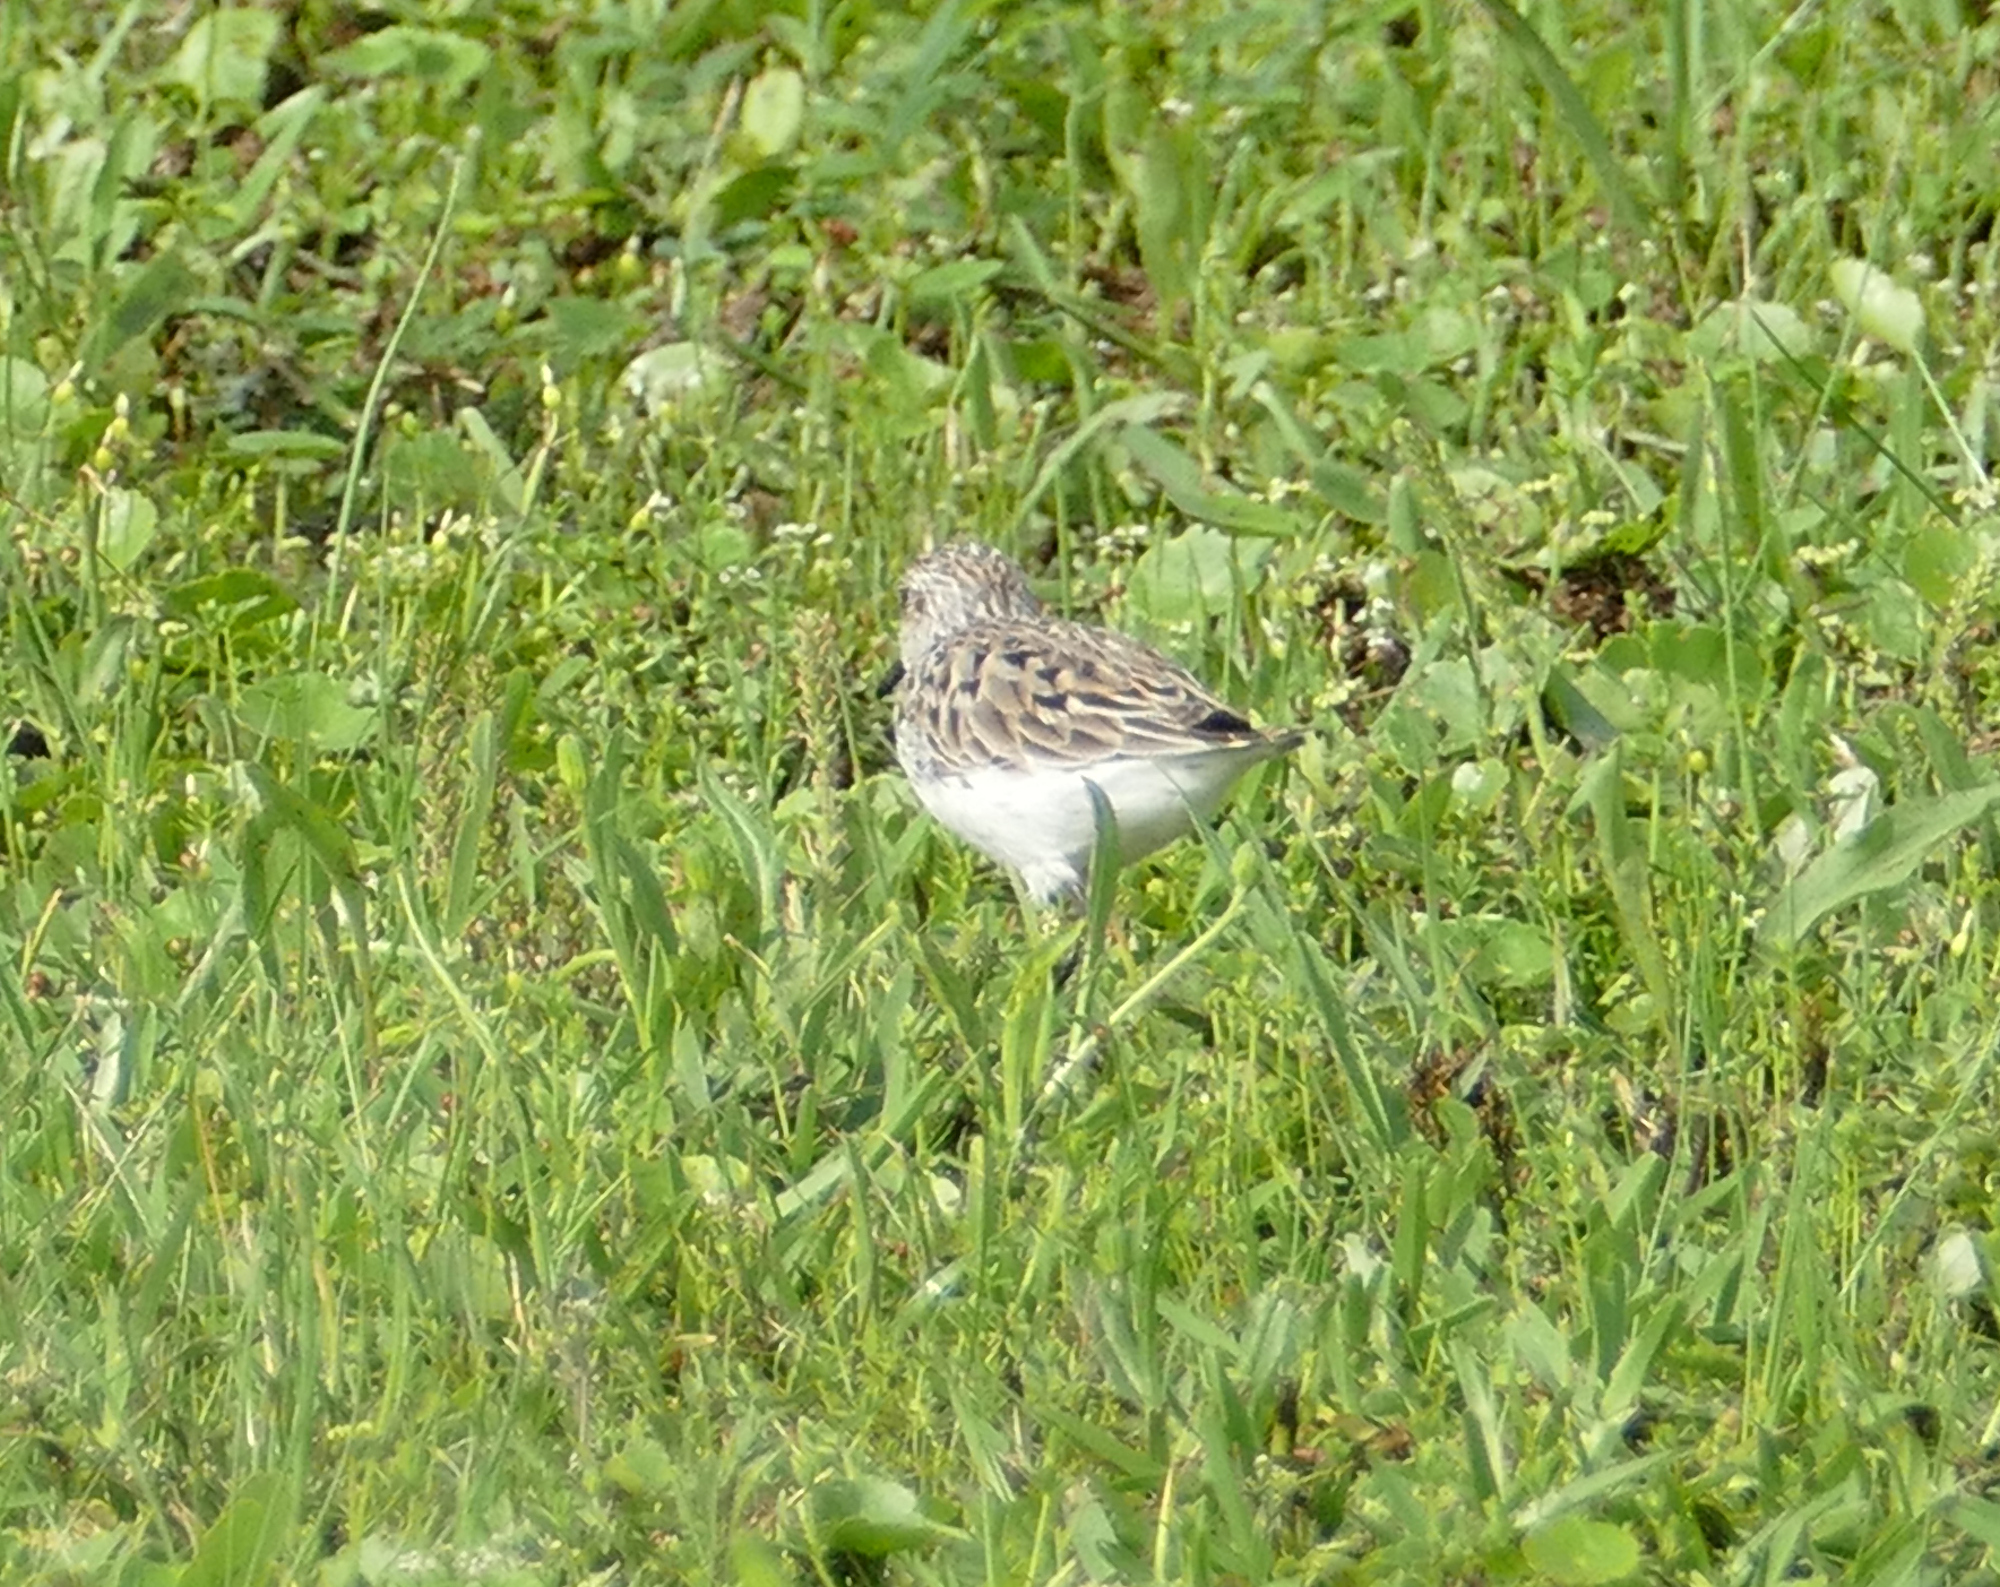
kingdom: Animalia
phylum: Chordata
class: Aves
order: Charadriiformes
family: Scolopacidae
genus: Calidris
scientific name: Calidris pusilla
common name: Semipalmated sandpiper
